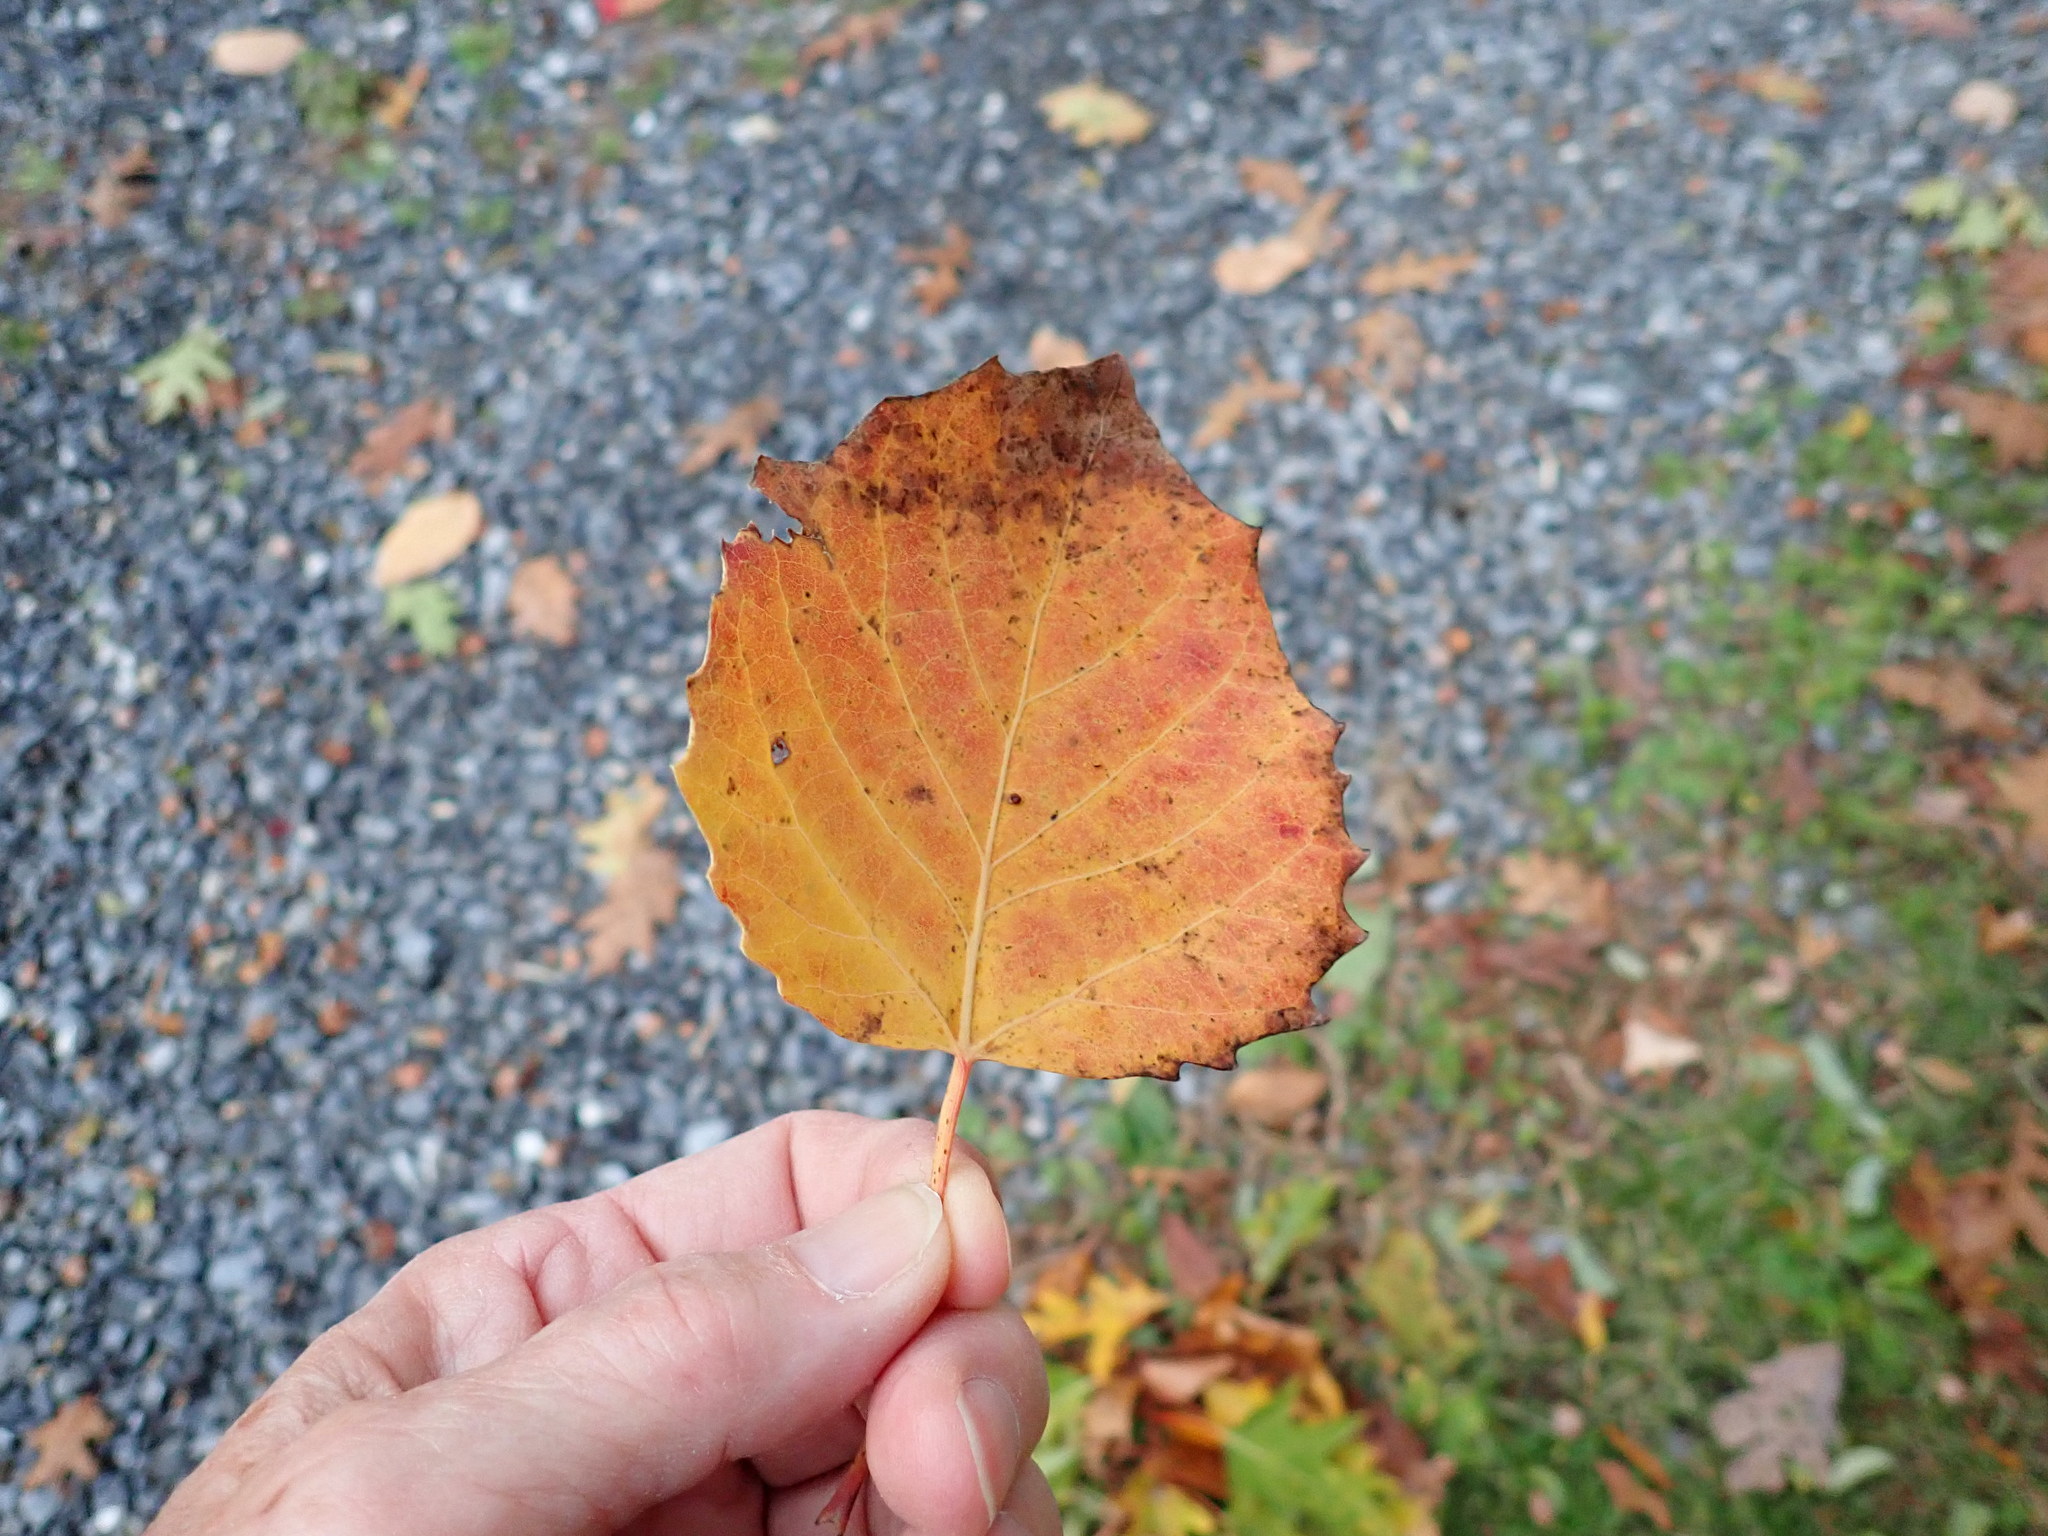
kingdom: Plantae
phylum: Tracheophyta
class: Magnoliopsida
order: Malpighiales
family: Salicaceae
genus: Populus
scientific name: Populus grandidentata
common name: Bigtooth aspen
